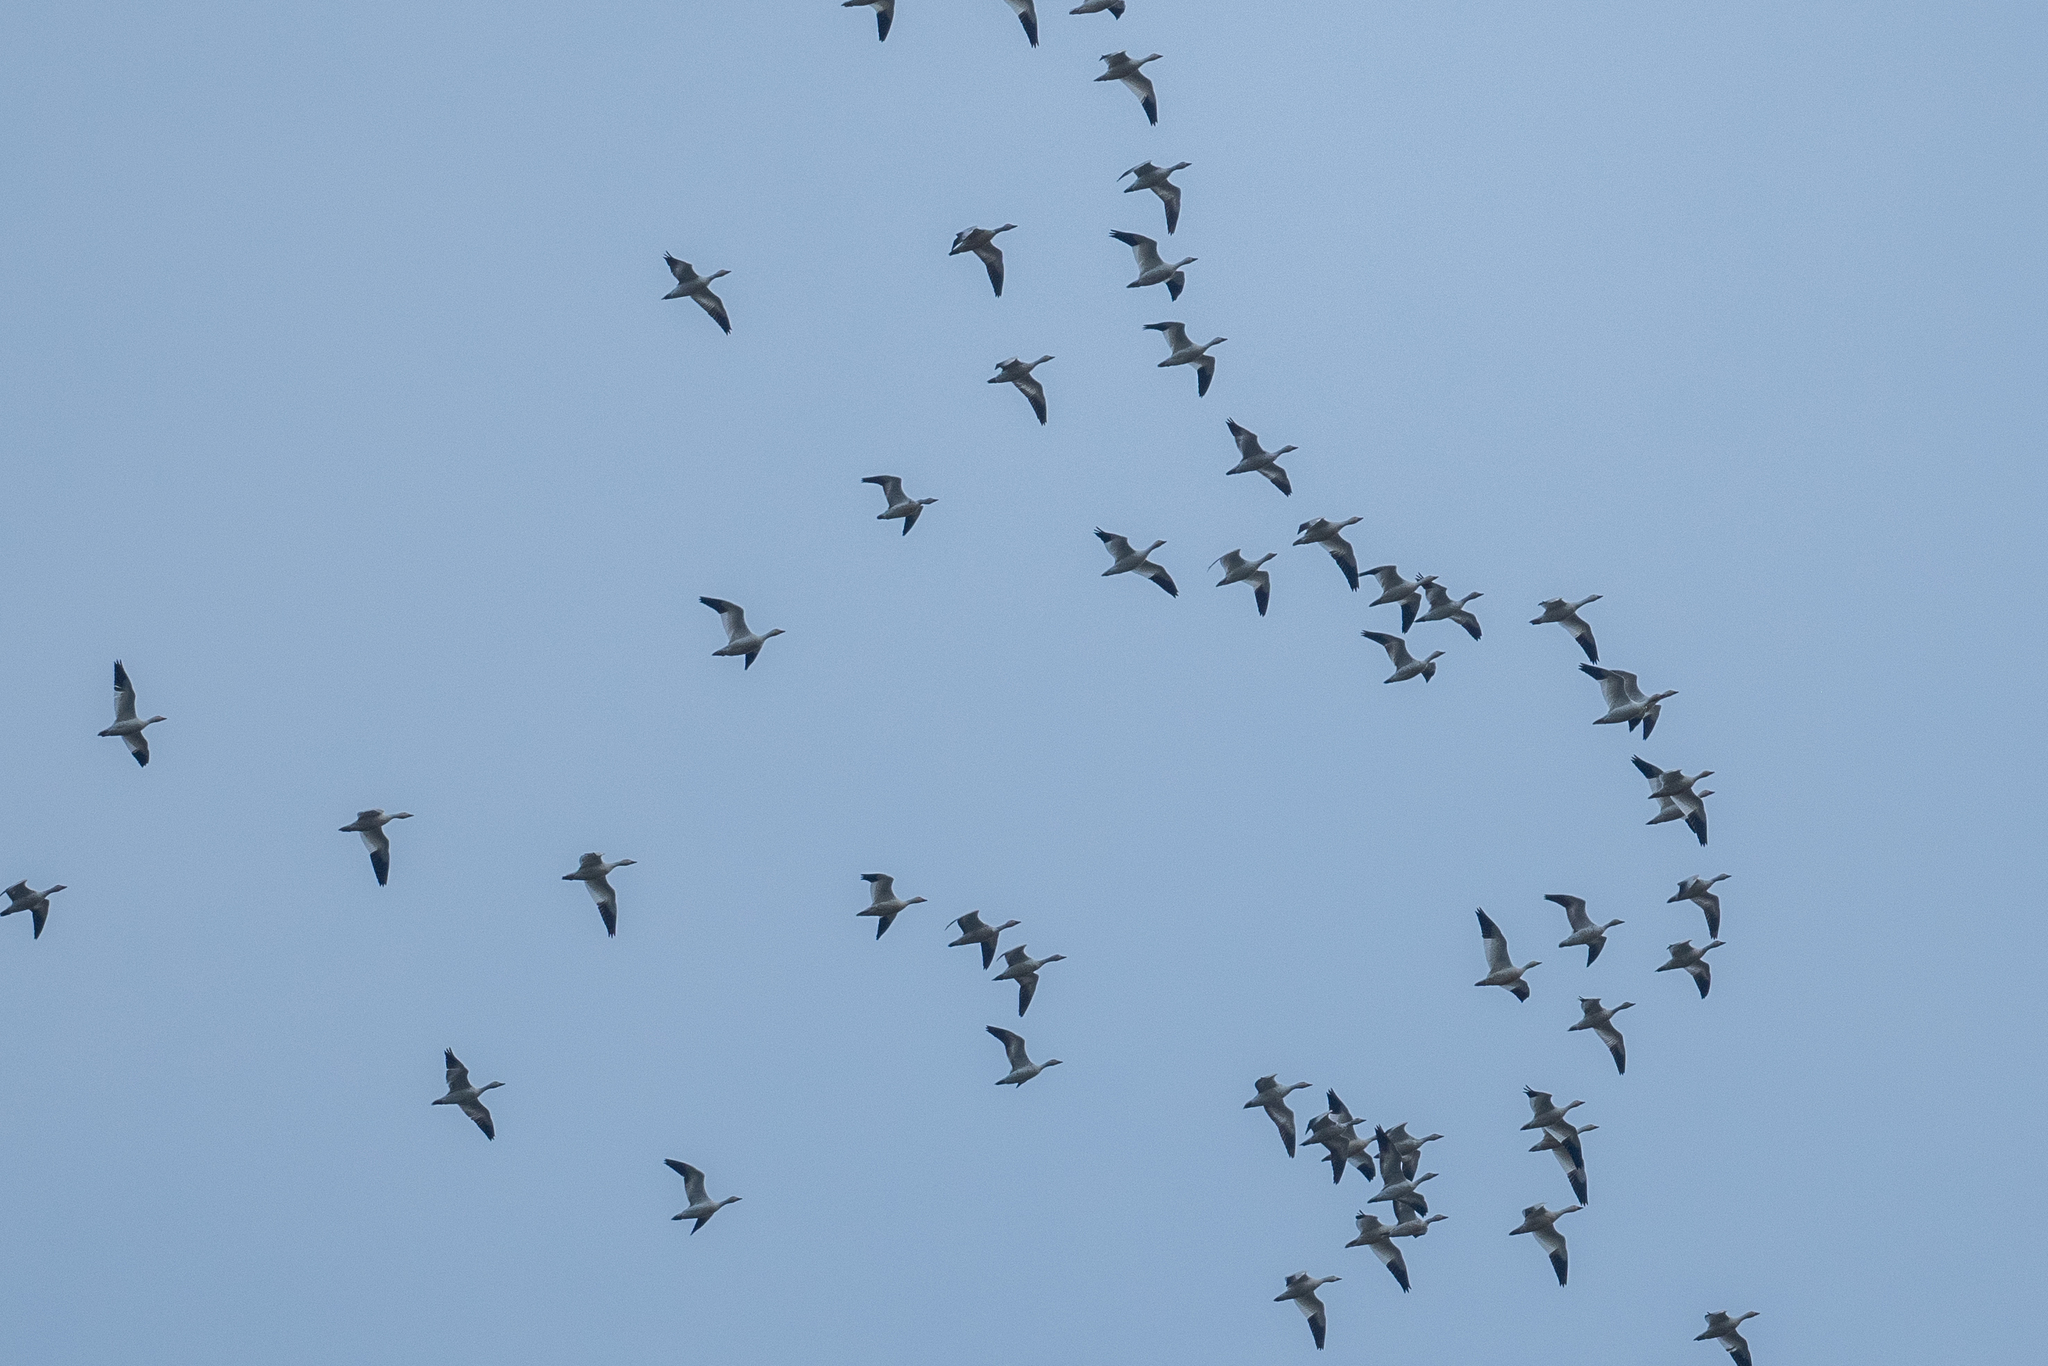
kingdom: Animalia
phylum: Chordata
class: Aves
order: Anseriformes
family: Anatidae
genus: Anser
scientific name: Anser caerulescens
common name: Snow goose
